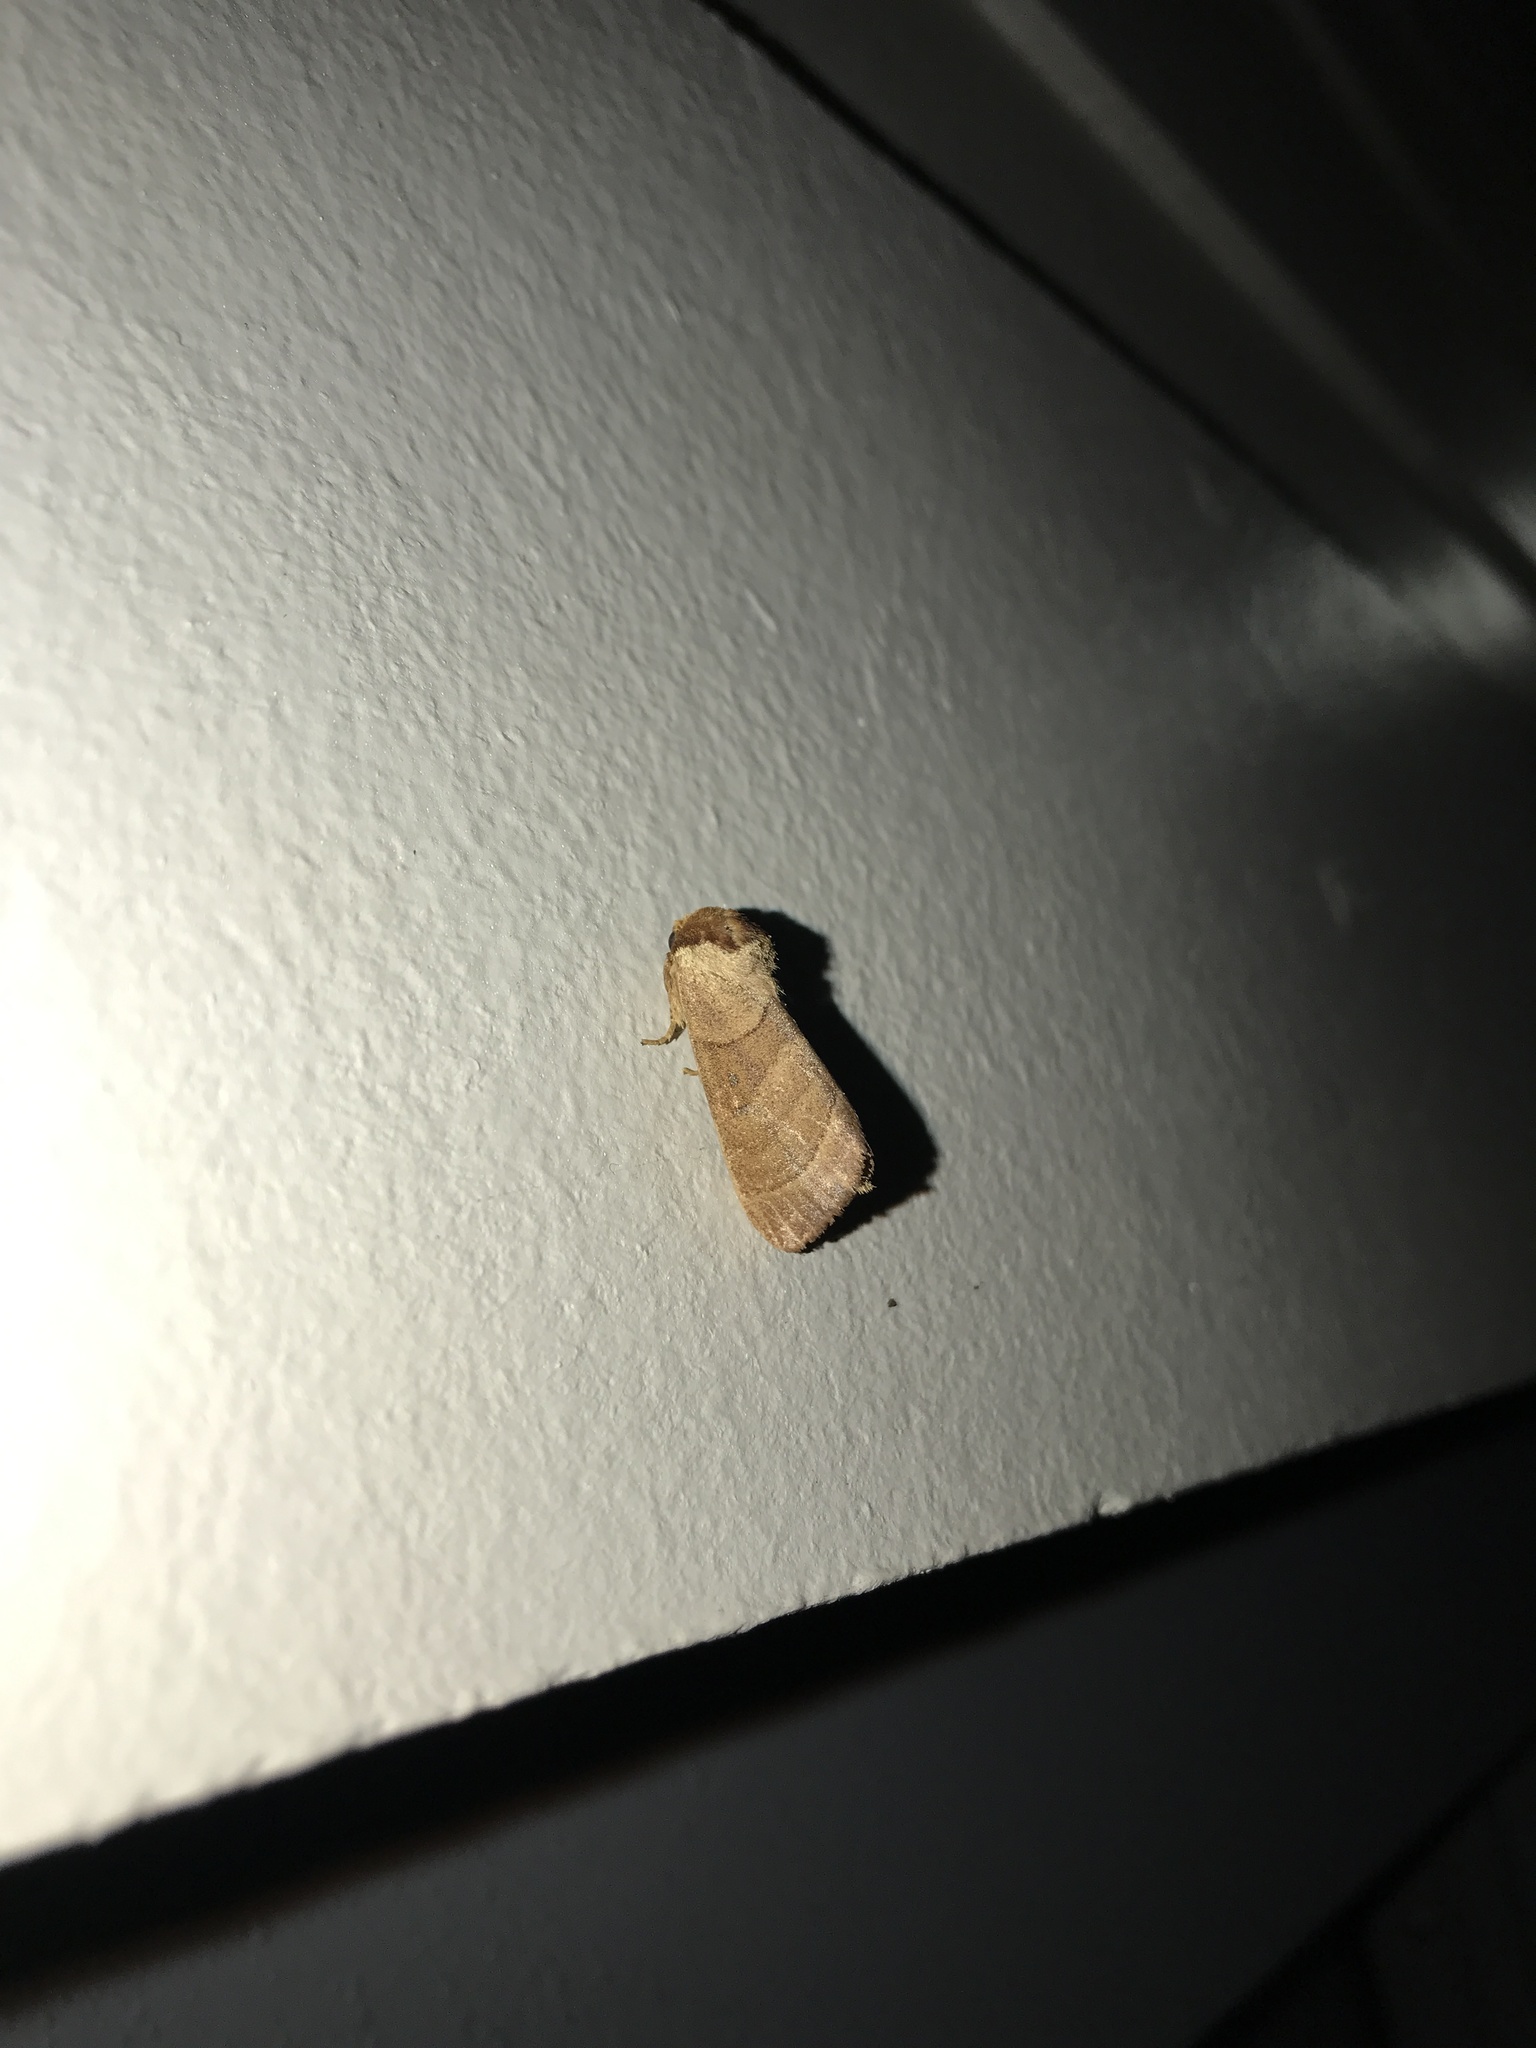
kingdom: Animalia
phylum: Arthropoda
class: Insecta
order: Lepidoptera
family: Notodontidae
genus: Datana
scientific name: Datana integerrima
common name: Walnut caterpillar
